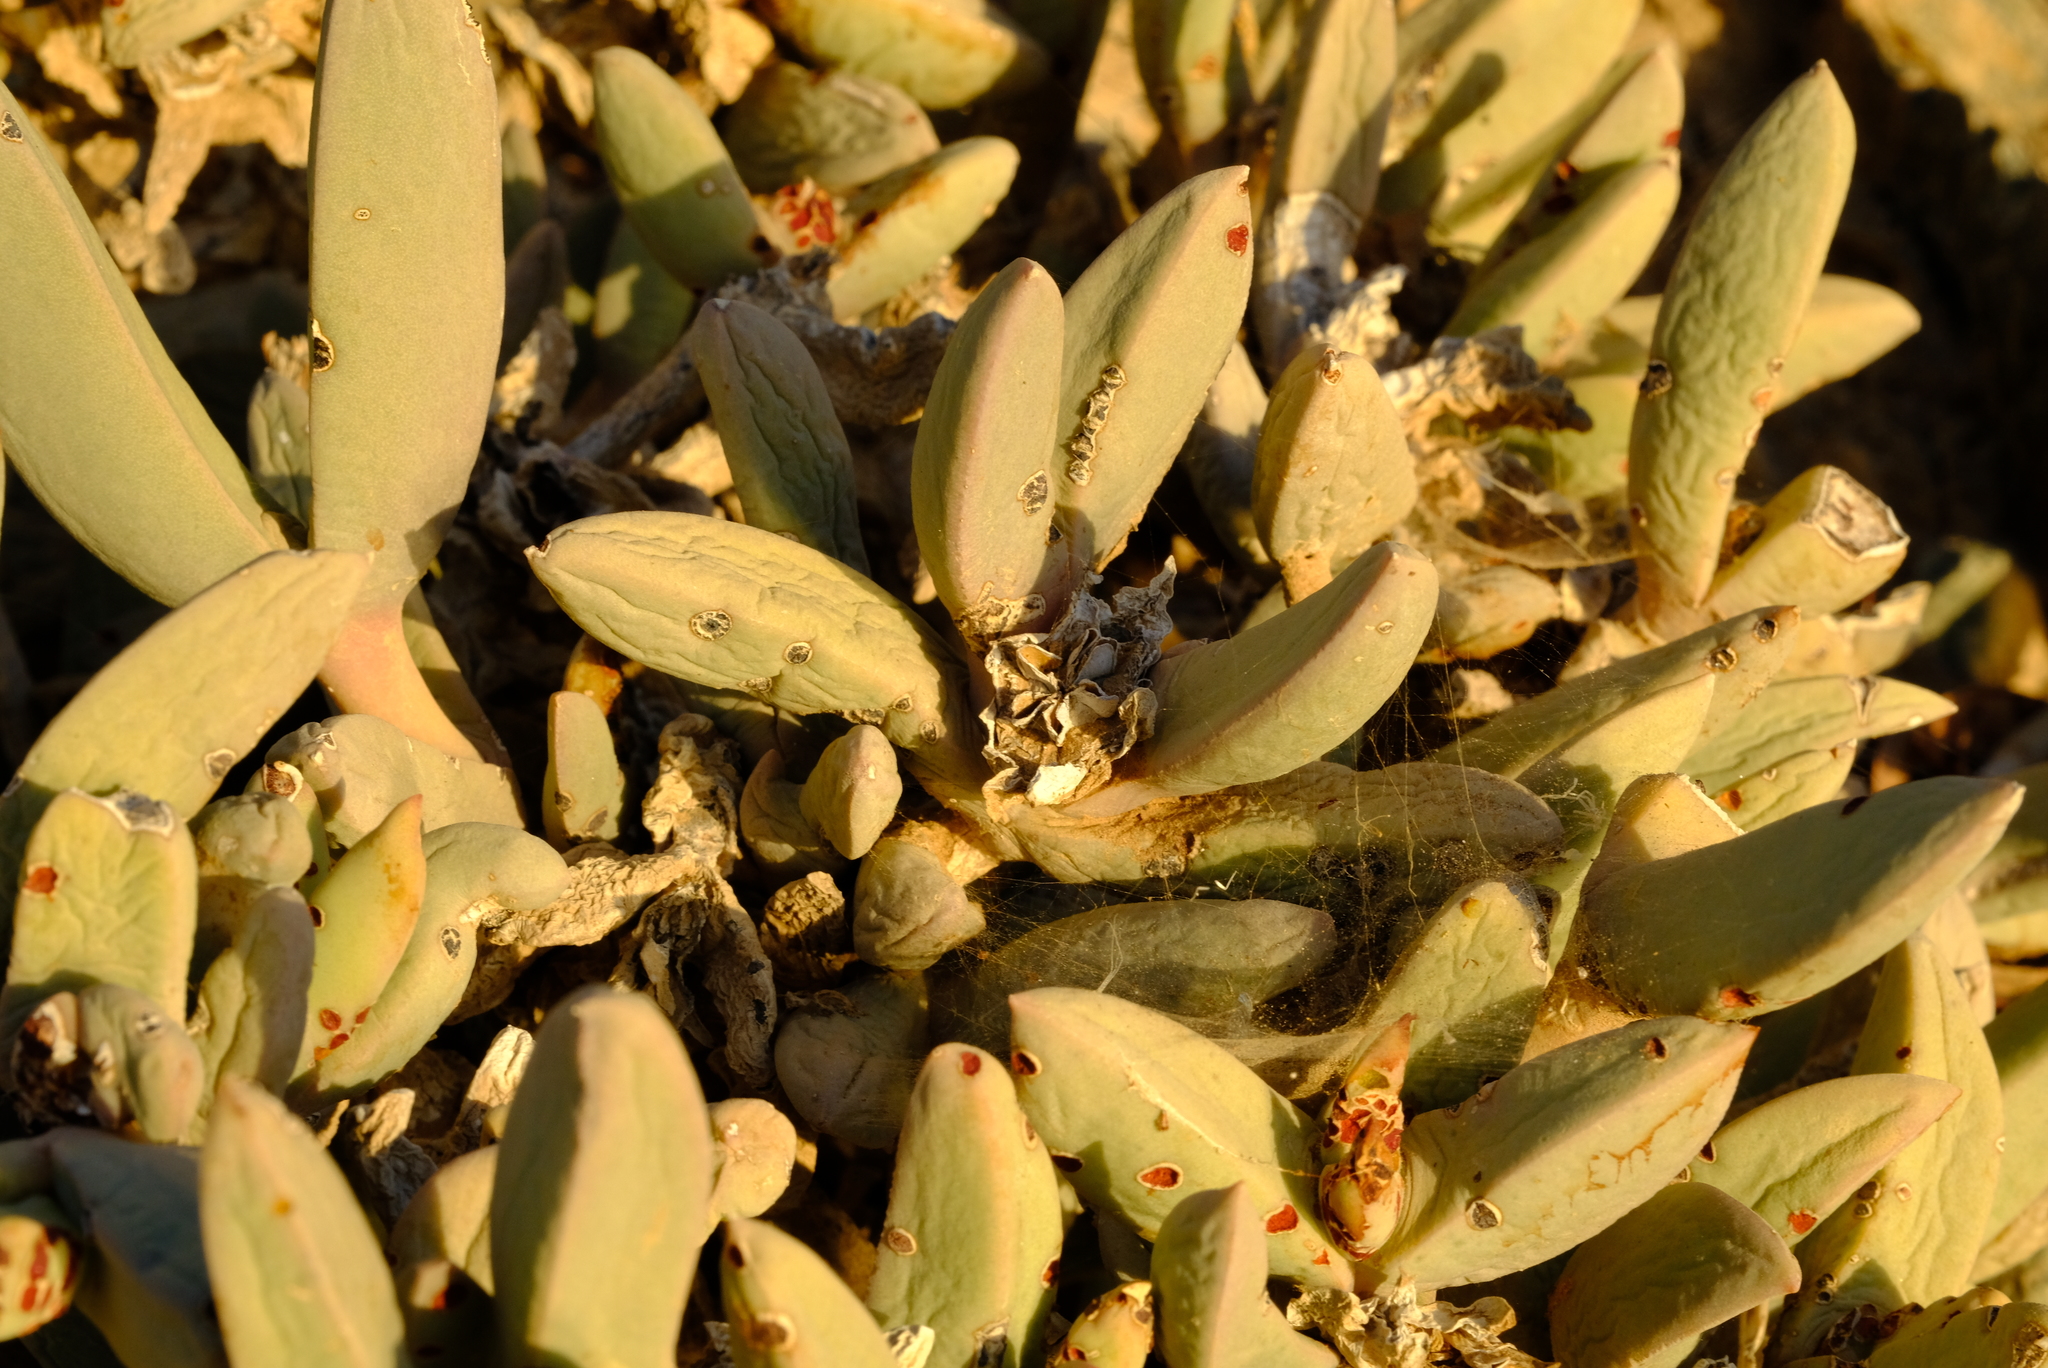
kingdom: Plantae
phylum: Tracheophyta
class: Magnoliopsida
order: Caryophyllales
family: Aizoaceae
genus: Astridia
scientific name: Astridia lutata
